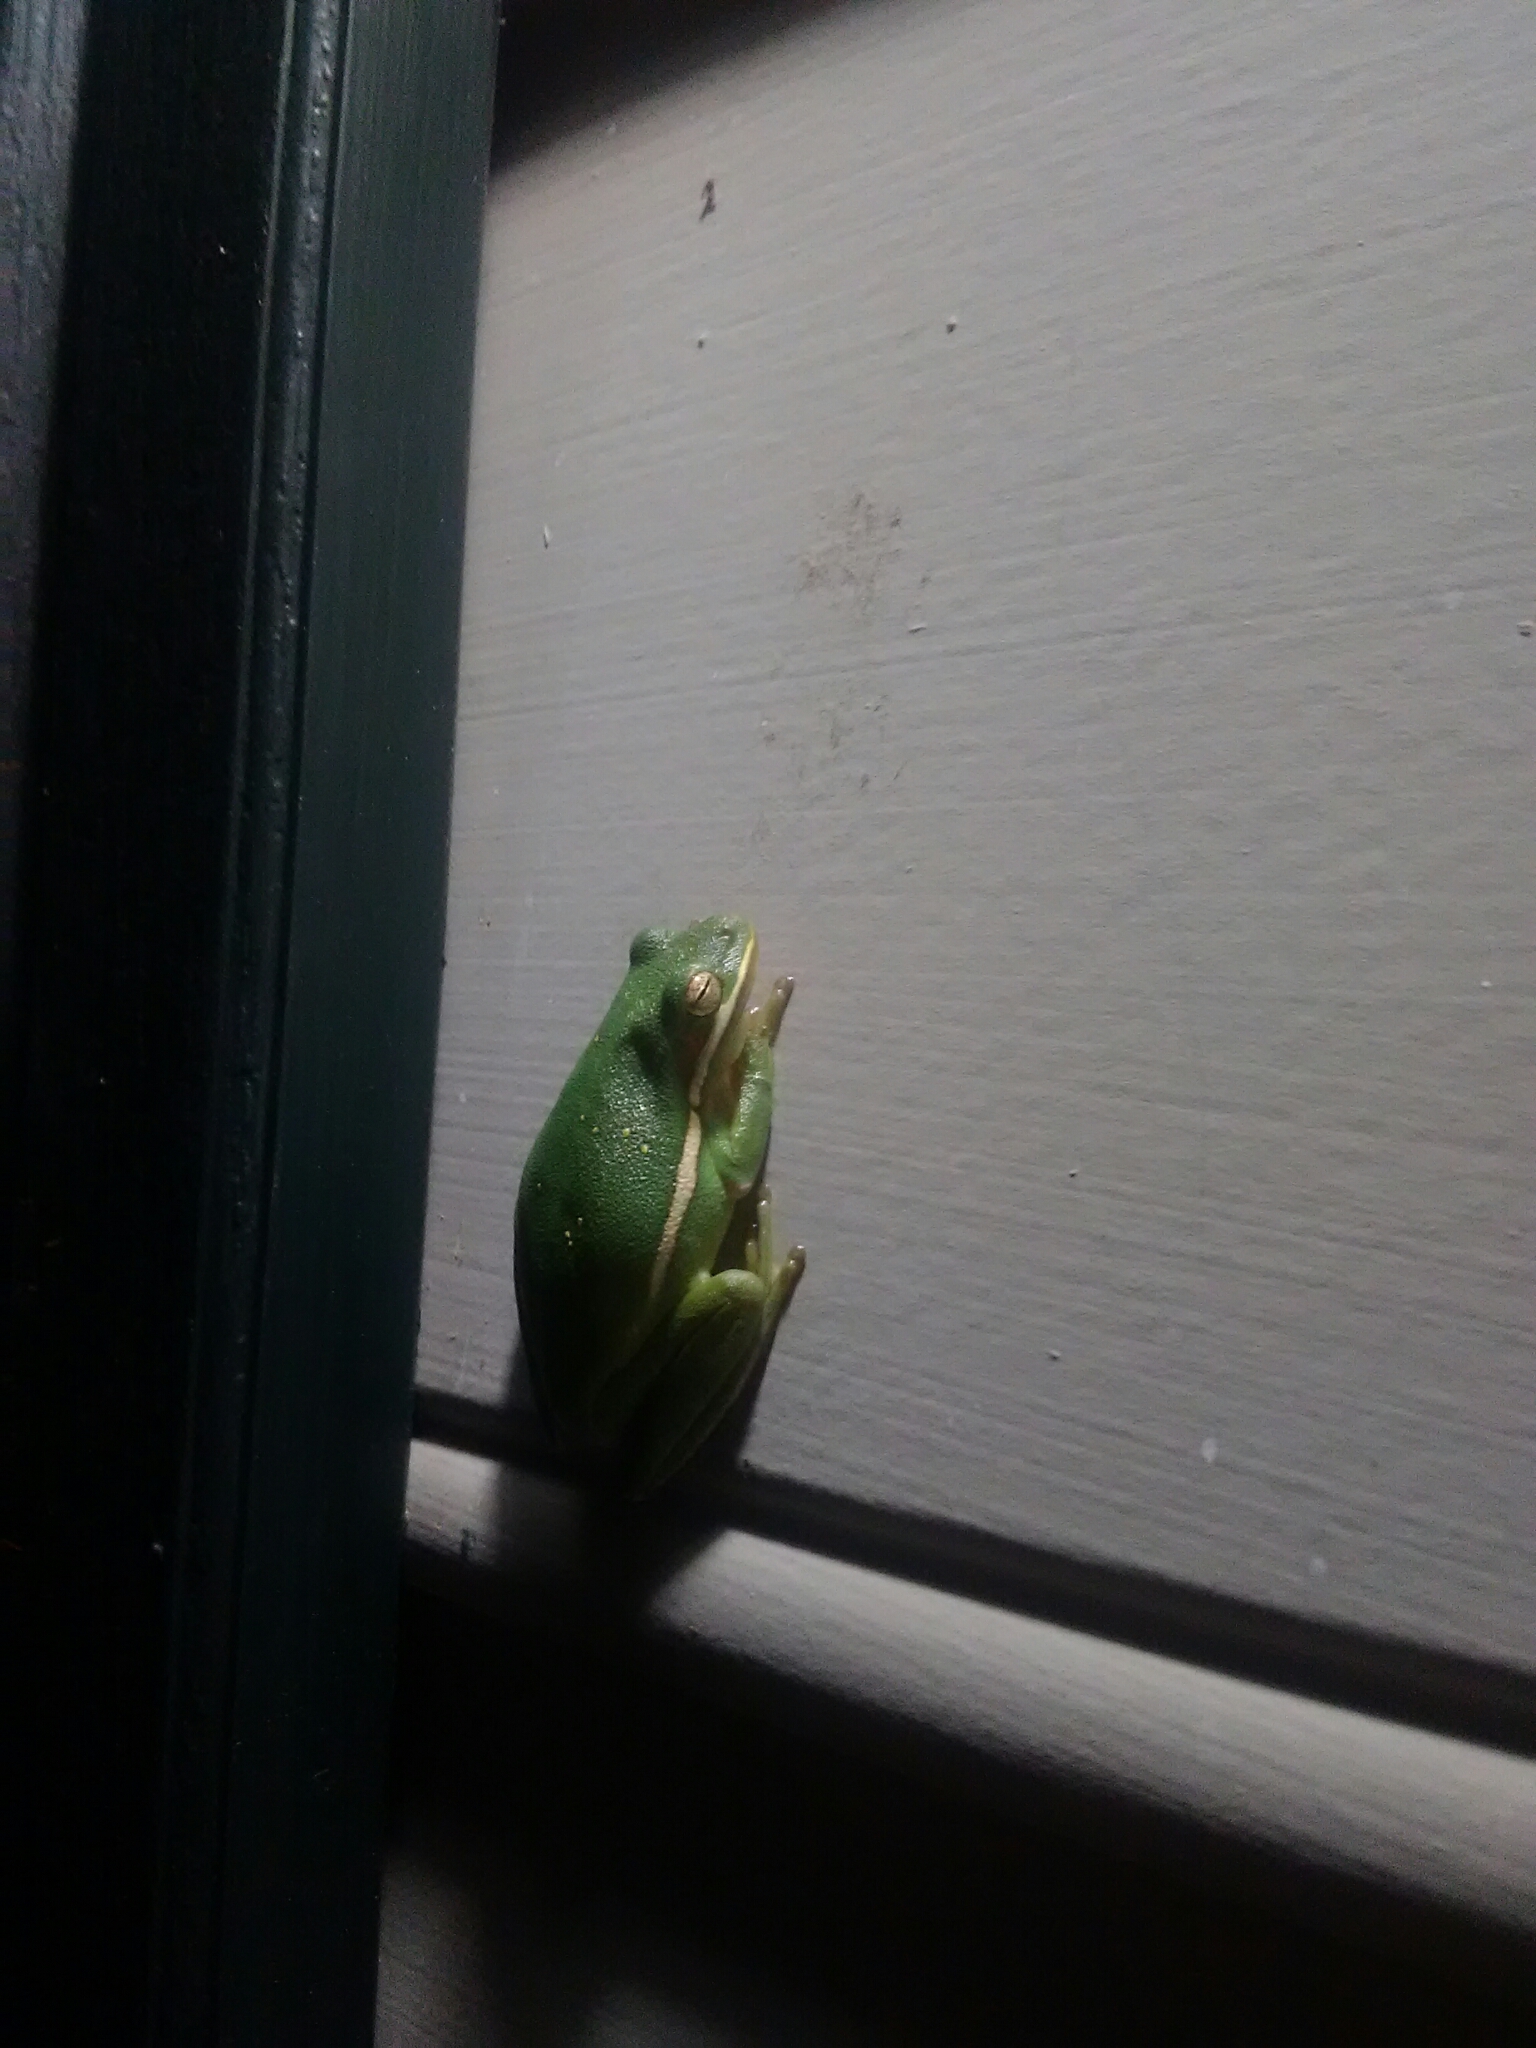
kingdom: Animalia
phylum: Chordata
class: Amphibia
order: Anura
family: Hylidae
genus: Dryophytes
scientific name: Dryophytes cinereus
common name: Green treefrog
